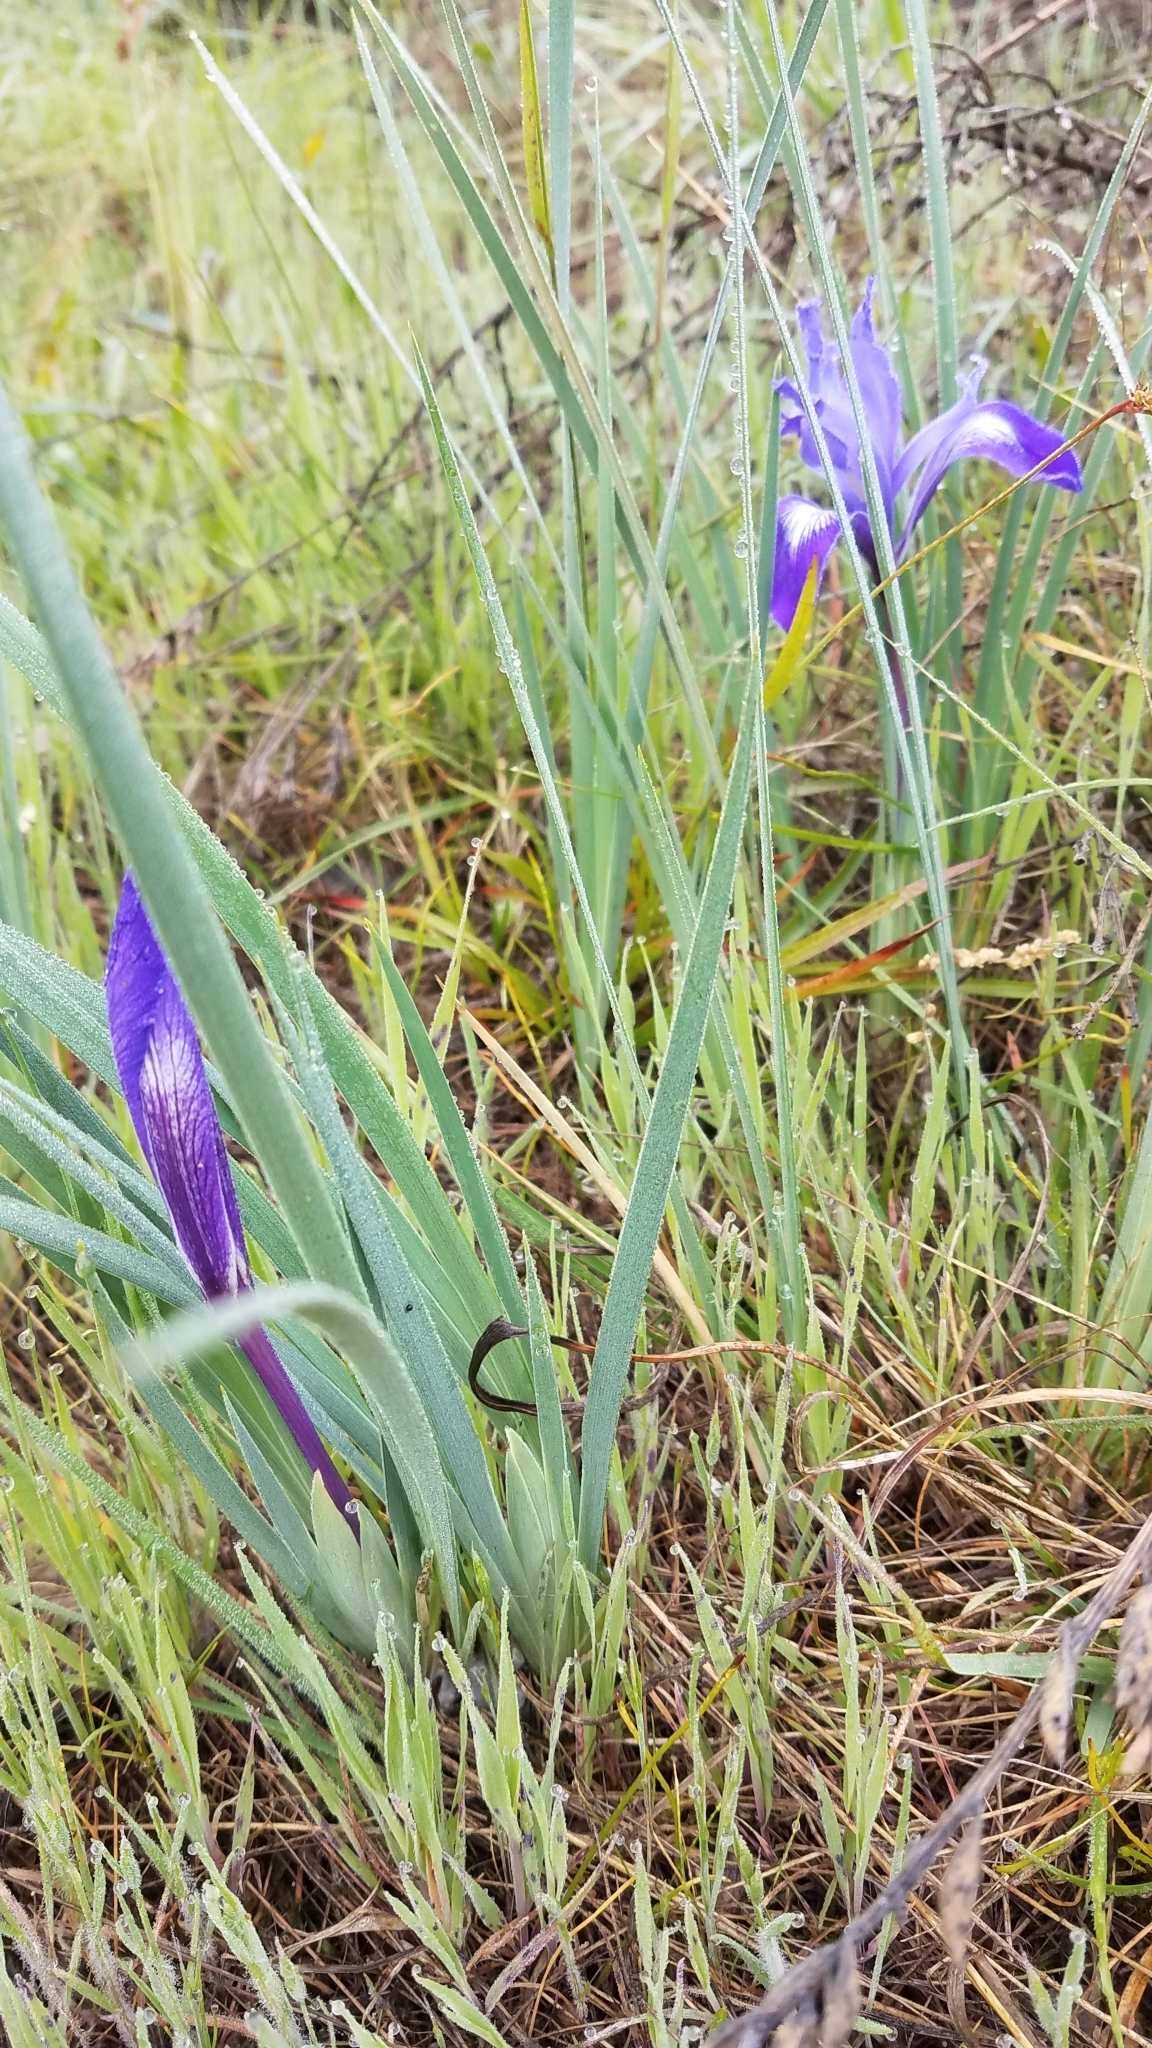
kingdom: Plantae
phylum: Tracheophyta
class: Liliopsida
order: Asparagales
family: Iridaceae
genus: Iris
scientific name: Iris macrosiphon
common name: Ground iris
